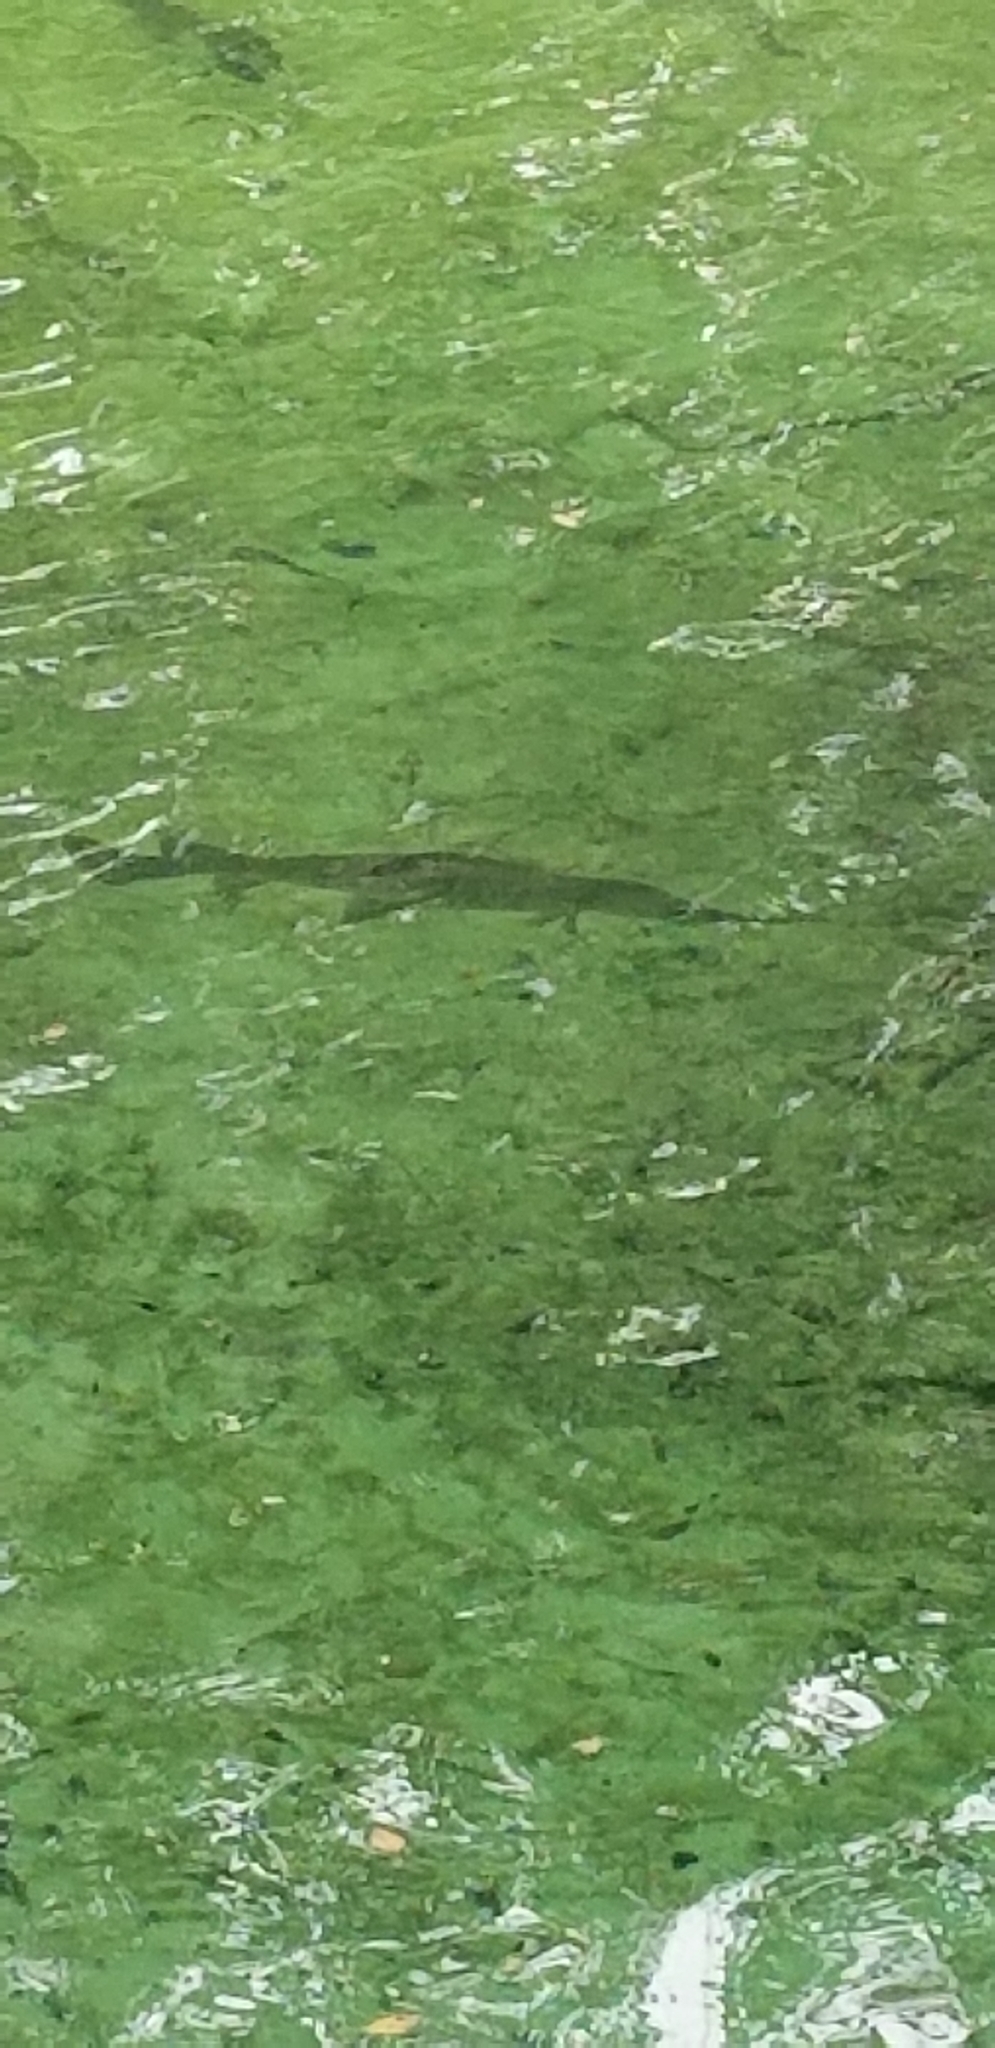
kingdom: Animalia
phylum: Chordata
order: Lepisosteiformes
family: Lepisosteidae
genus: Lepisosteus
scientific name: Lepisosteus osseus
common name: Longnose gar
